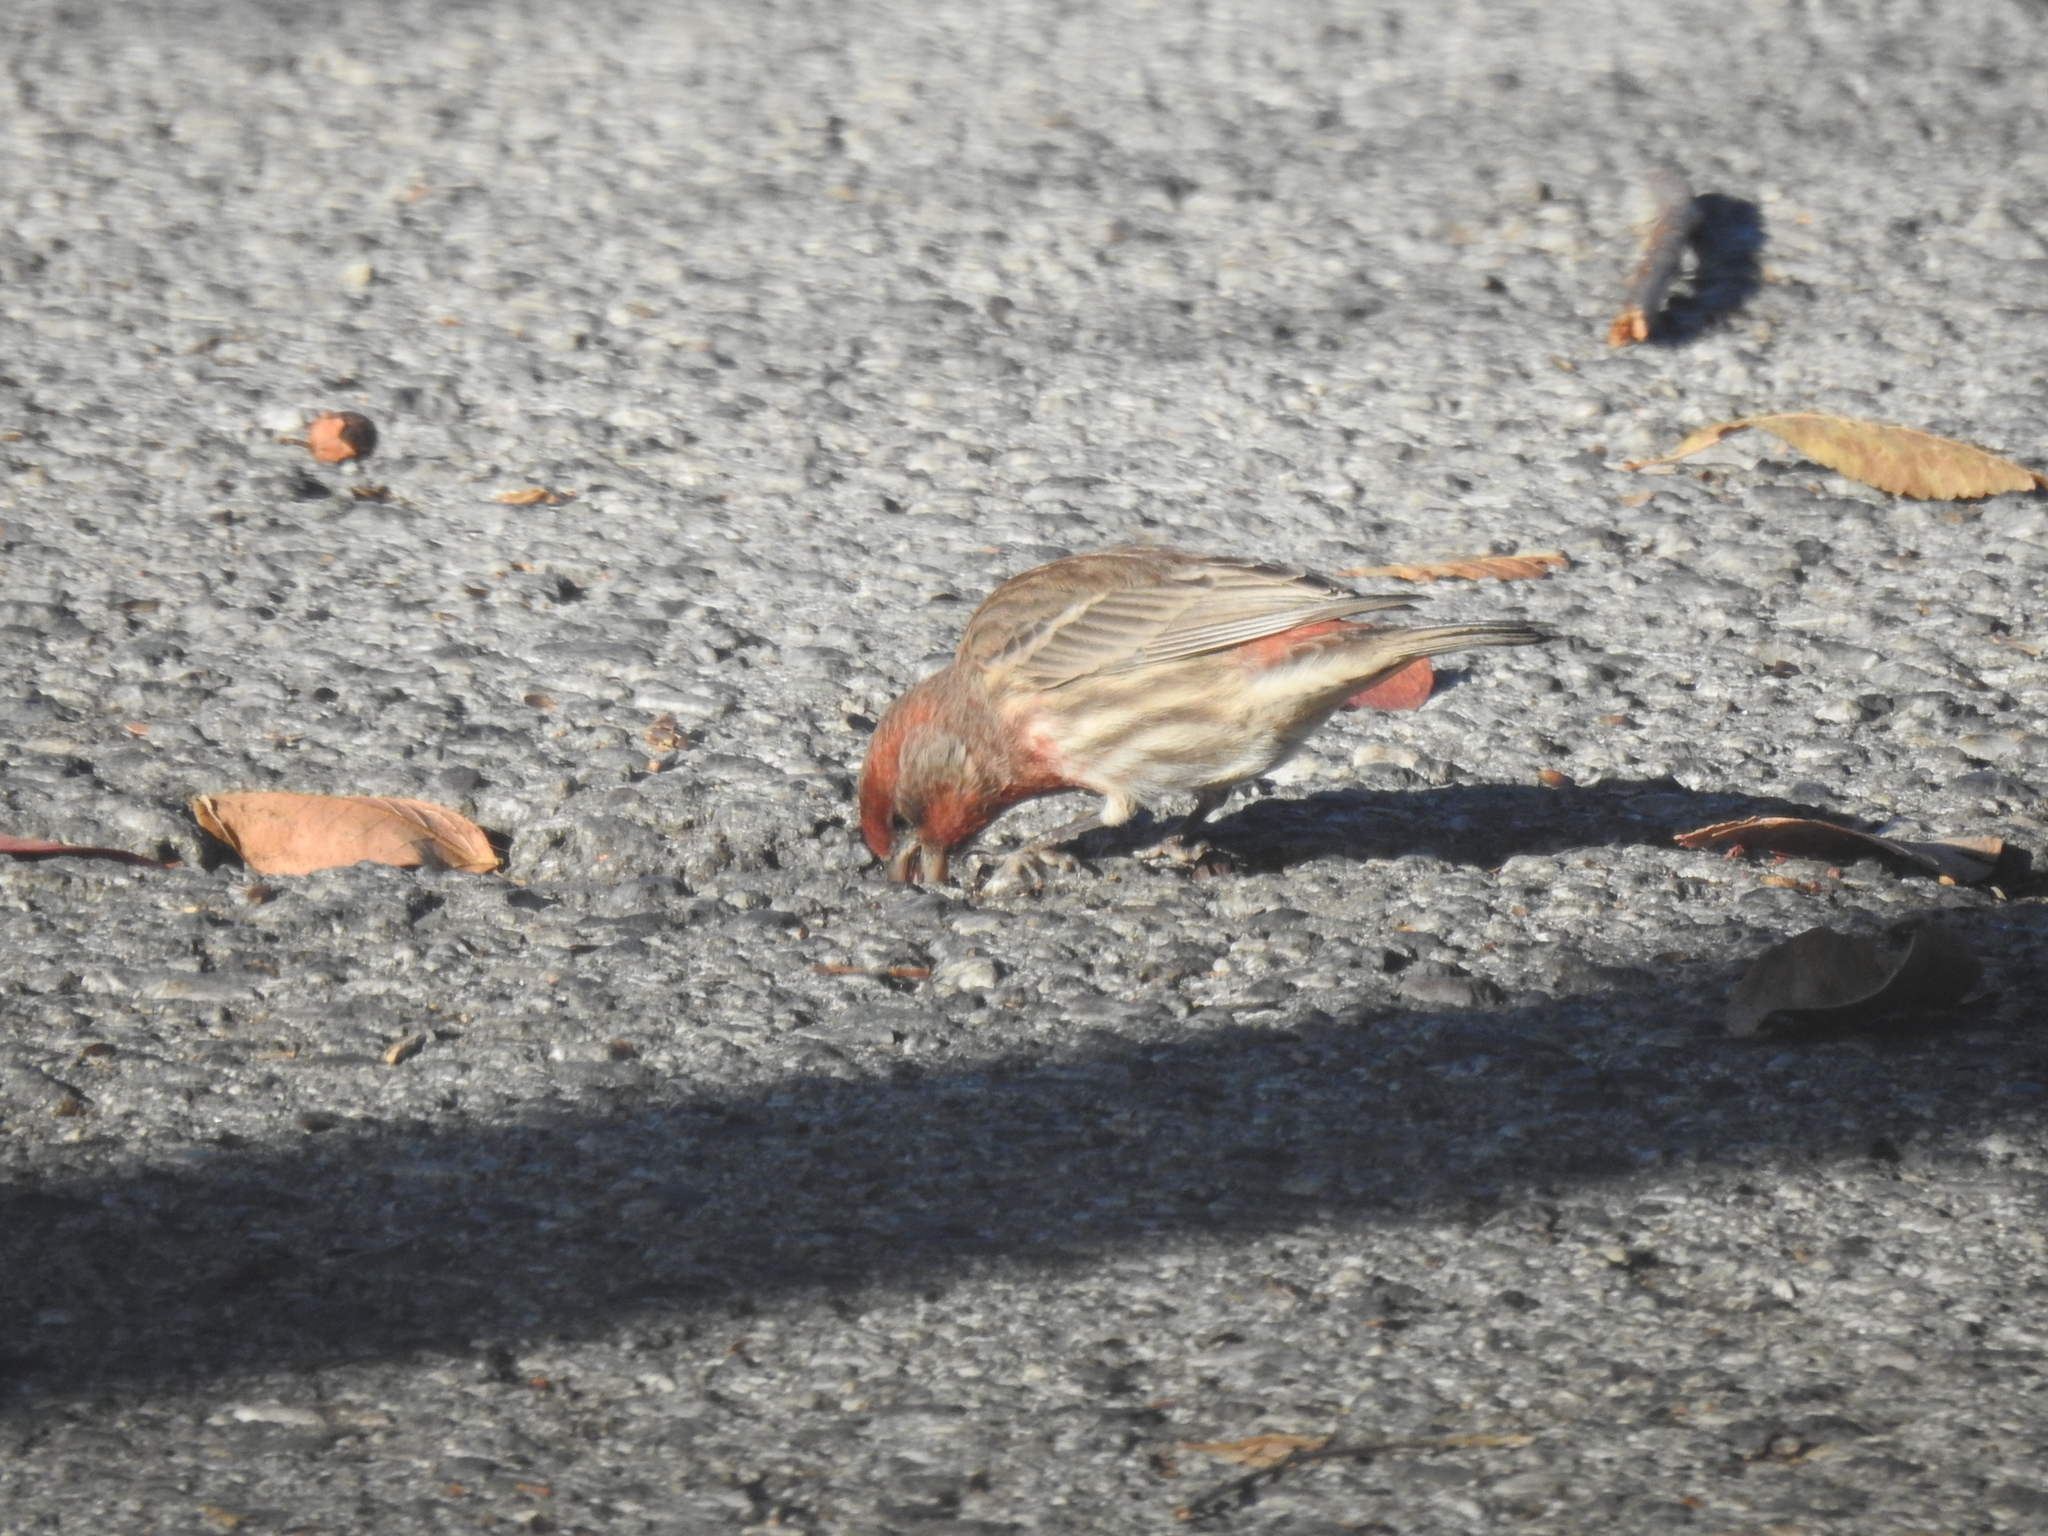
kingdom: Animalia
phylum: Chordata
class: Aves
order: Passeriformes
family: Fringillidae
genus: Haemorhous
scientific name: Haemorhous mexicanus
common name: House finch
